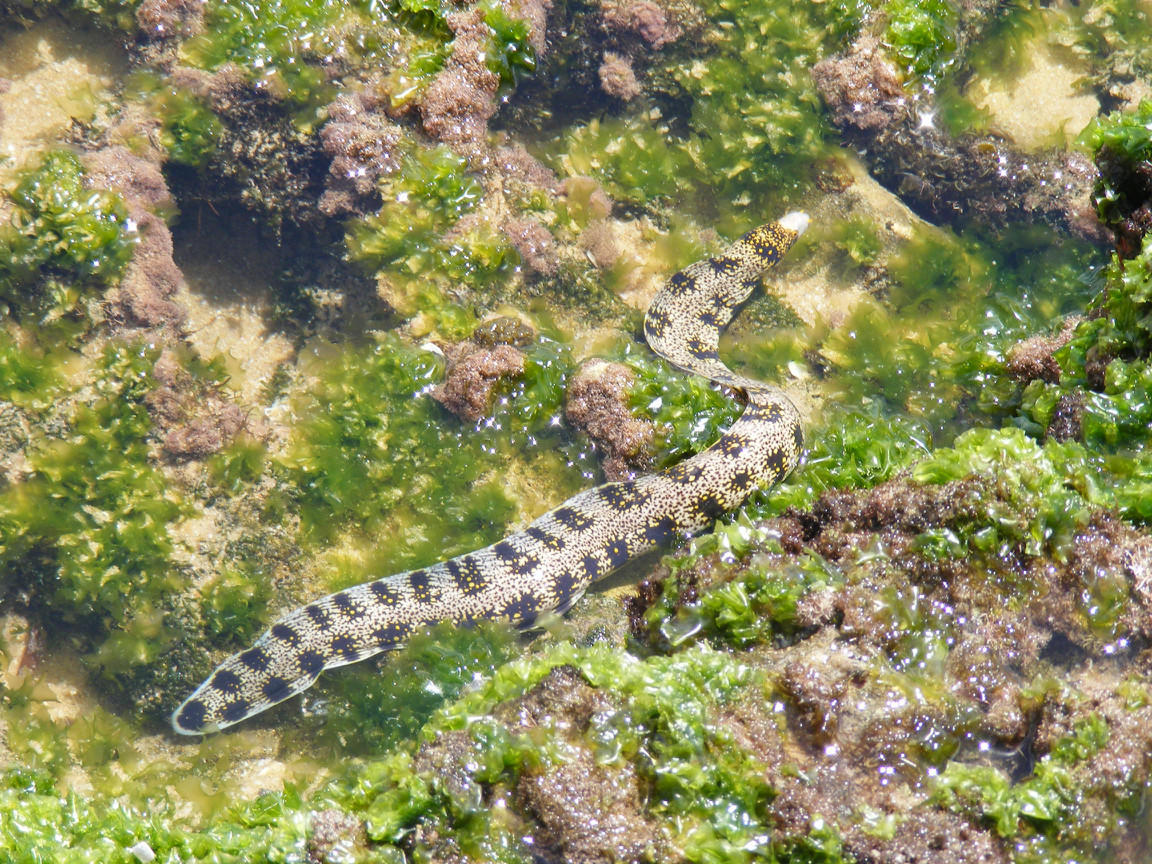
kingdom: Animalia
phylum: Chordata
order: Anguilliformes
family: Muraenidae
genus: Echidna
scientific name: Echidna nebulosa
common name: Snowflake moray
